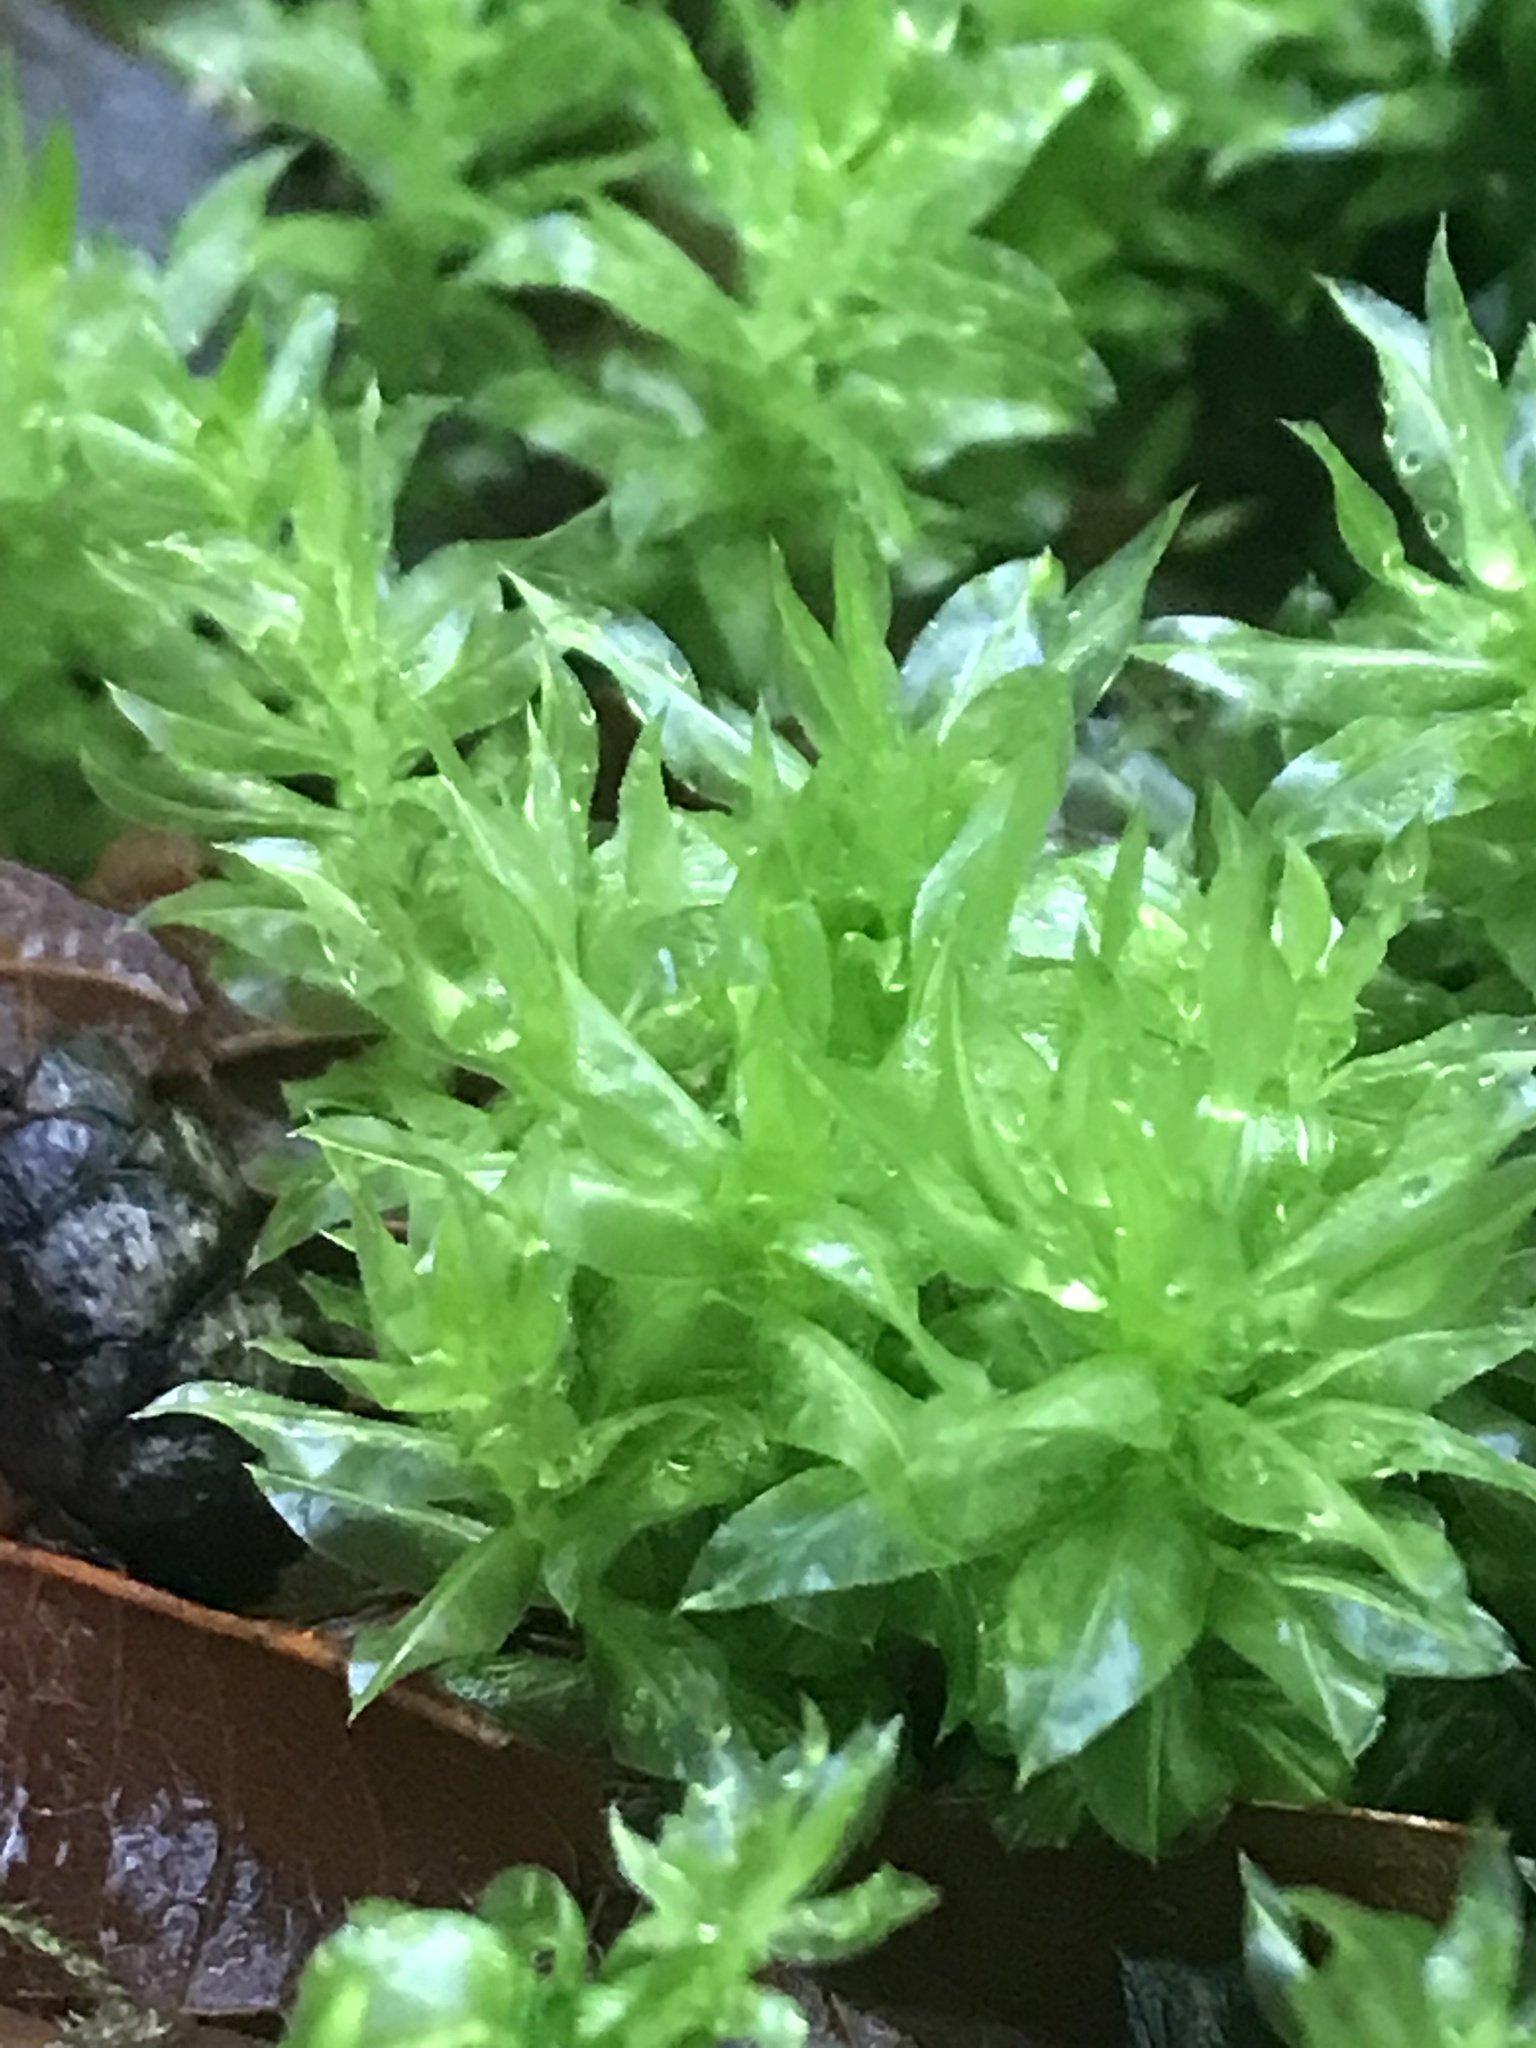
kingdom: Plantae
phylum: Bryophyta
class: Bryopsida
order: Bryales
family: Mniaceae
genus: Plagiomnium
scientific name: Plagiomnium insigne
